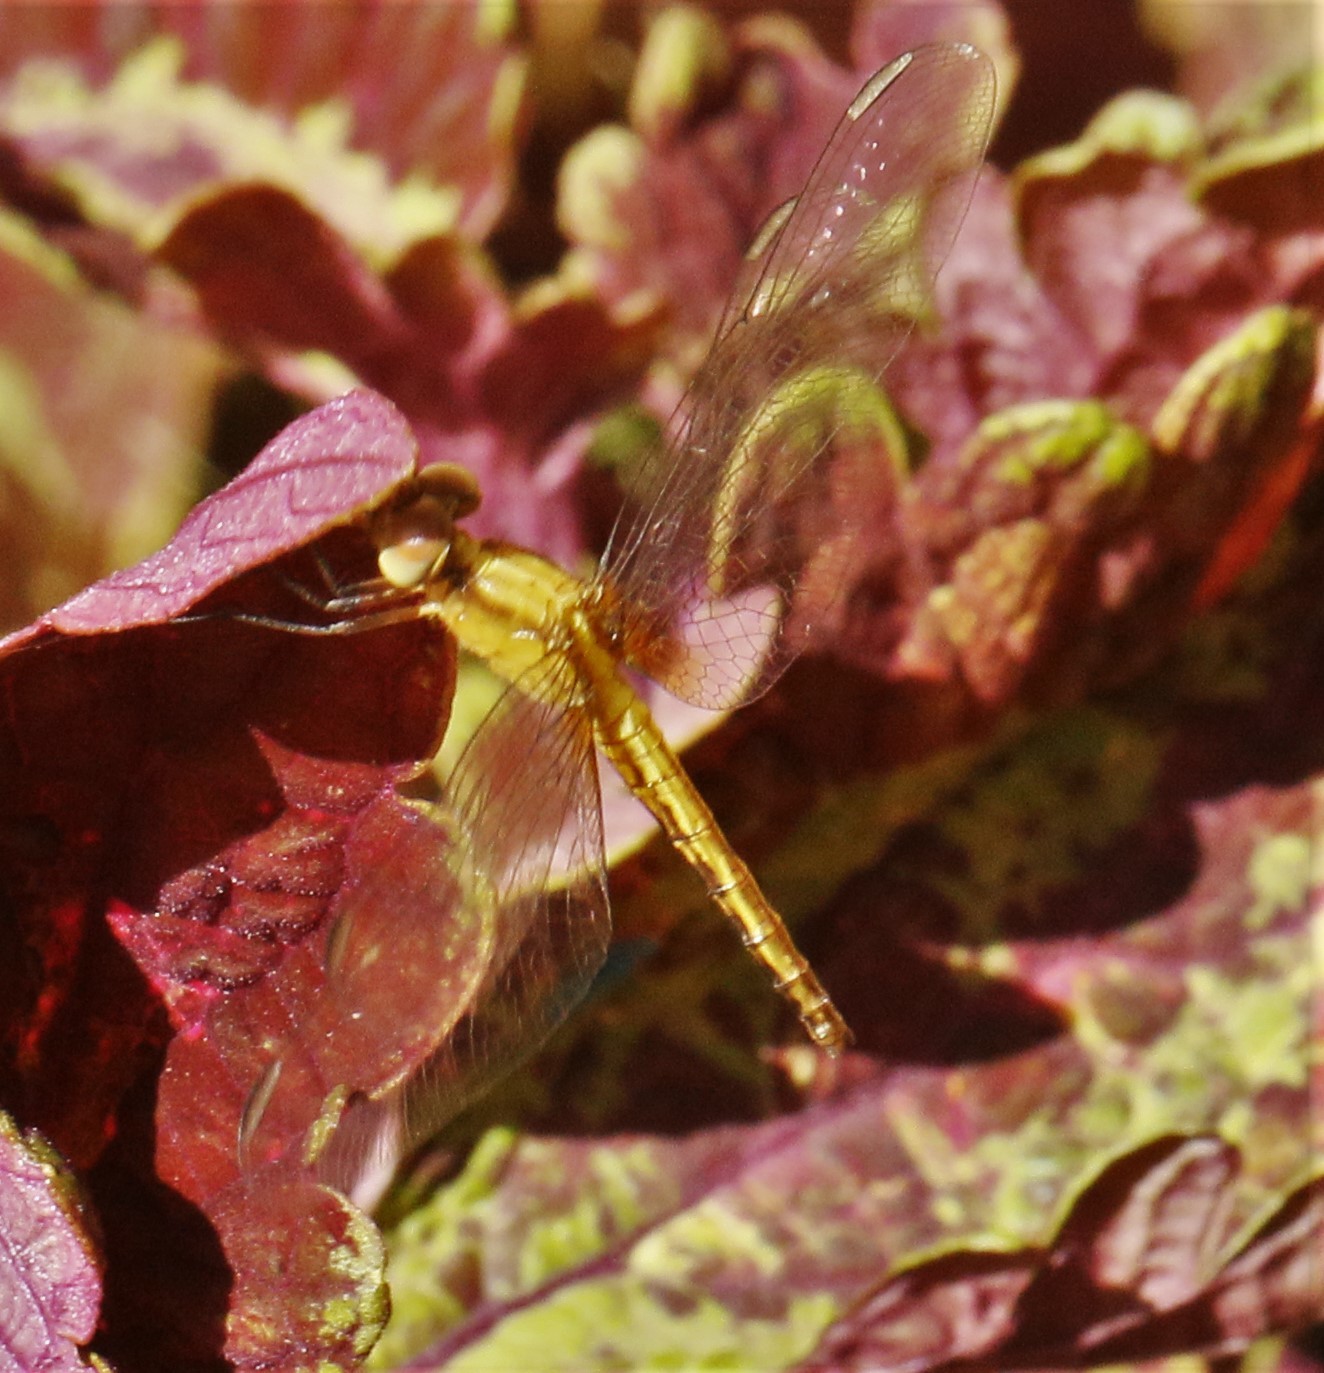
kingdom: Animalia
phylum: Arthropoda
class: Insecta
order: Odonata
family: Libellulidae
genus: Erythrodiplax
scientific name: Erythrodiplax fusca
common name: Red-faced dragonlet
